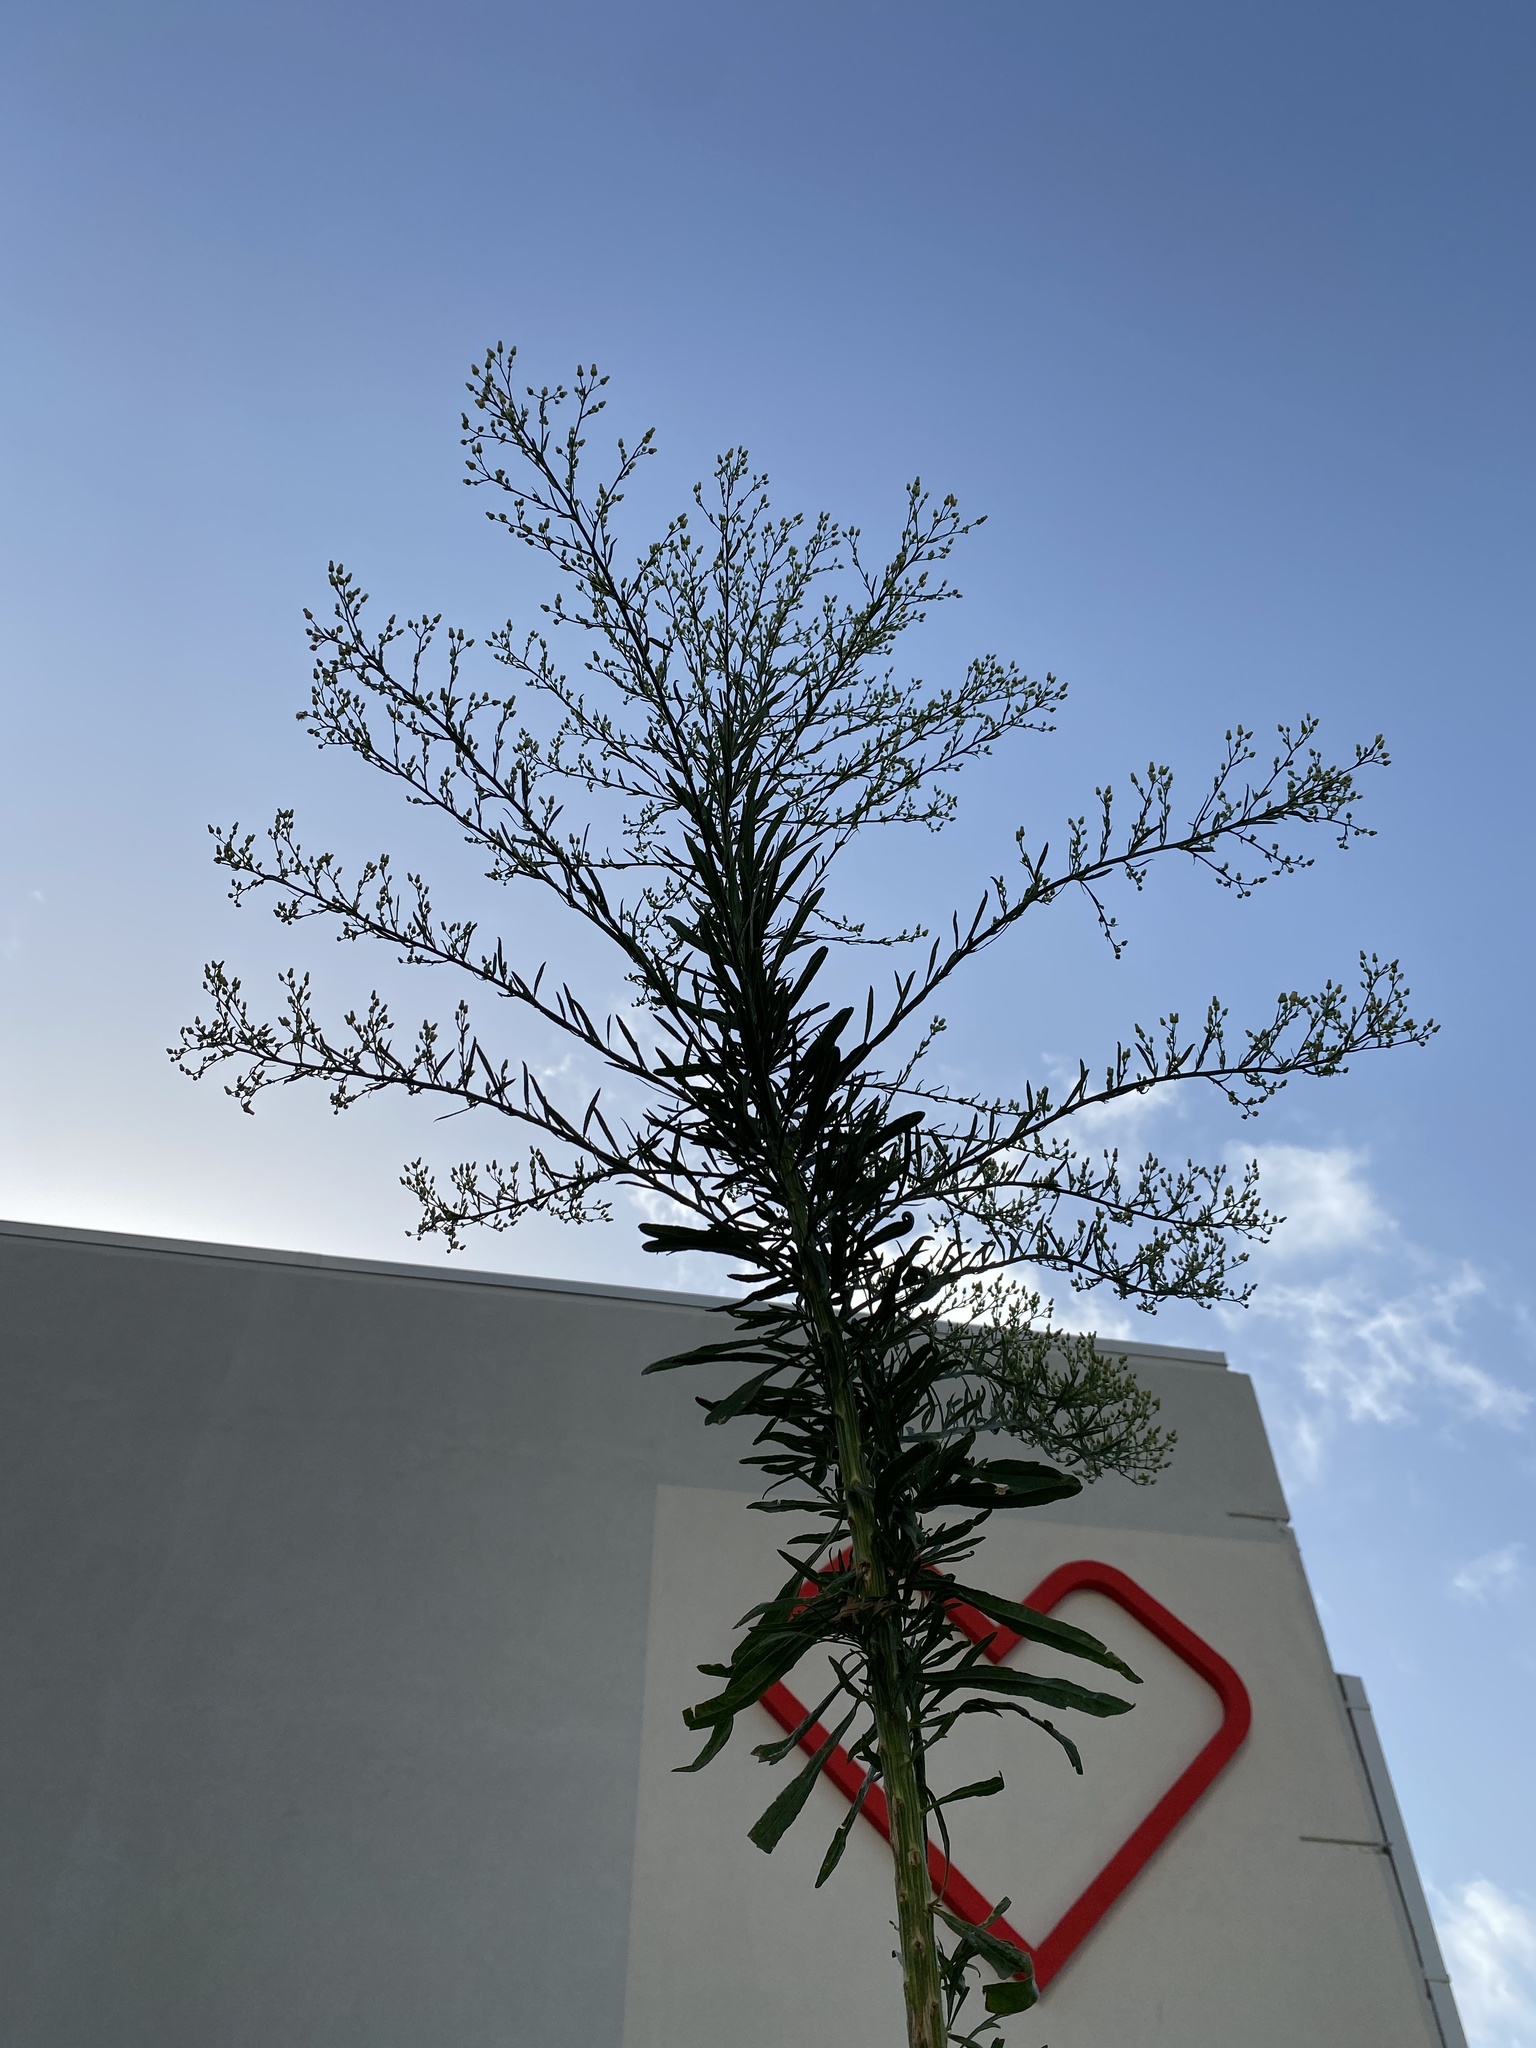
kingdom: Plantae
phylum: Tracheophyta
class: Magnoliopsida
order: Asterales
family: Asteraceae
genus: Erigeron
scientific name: Erigeron canadensis
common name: Canadian fleabane
